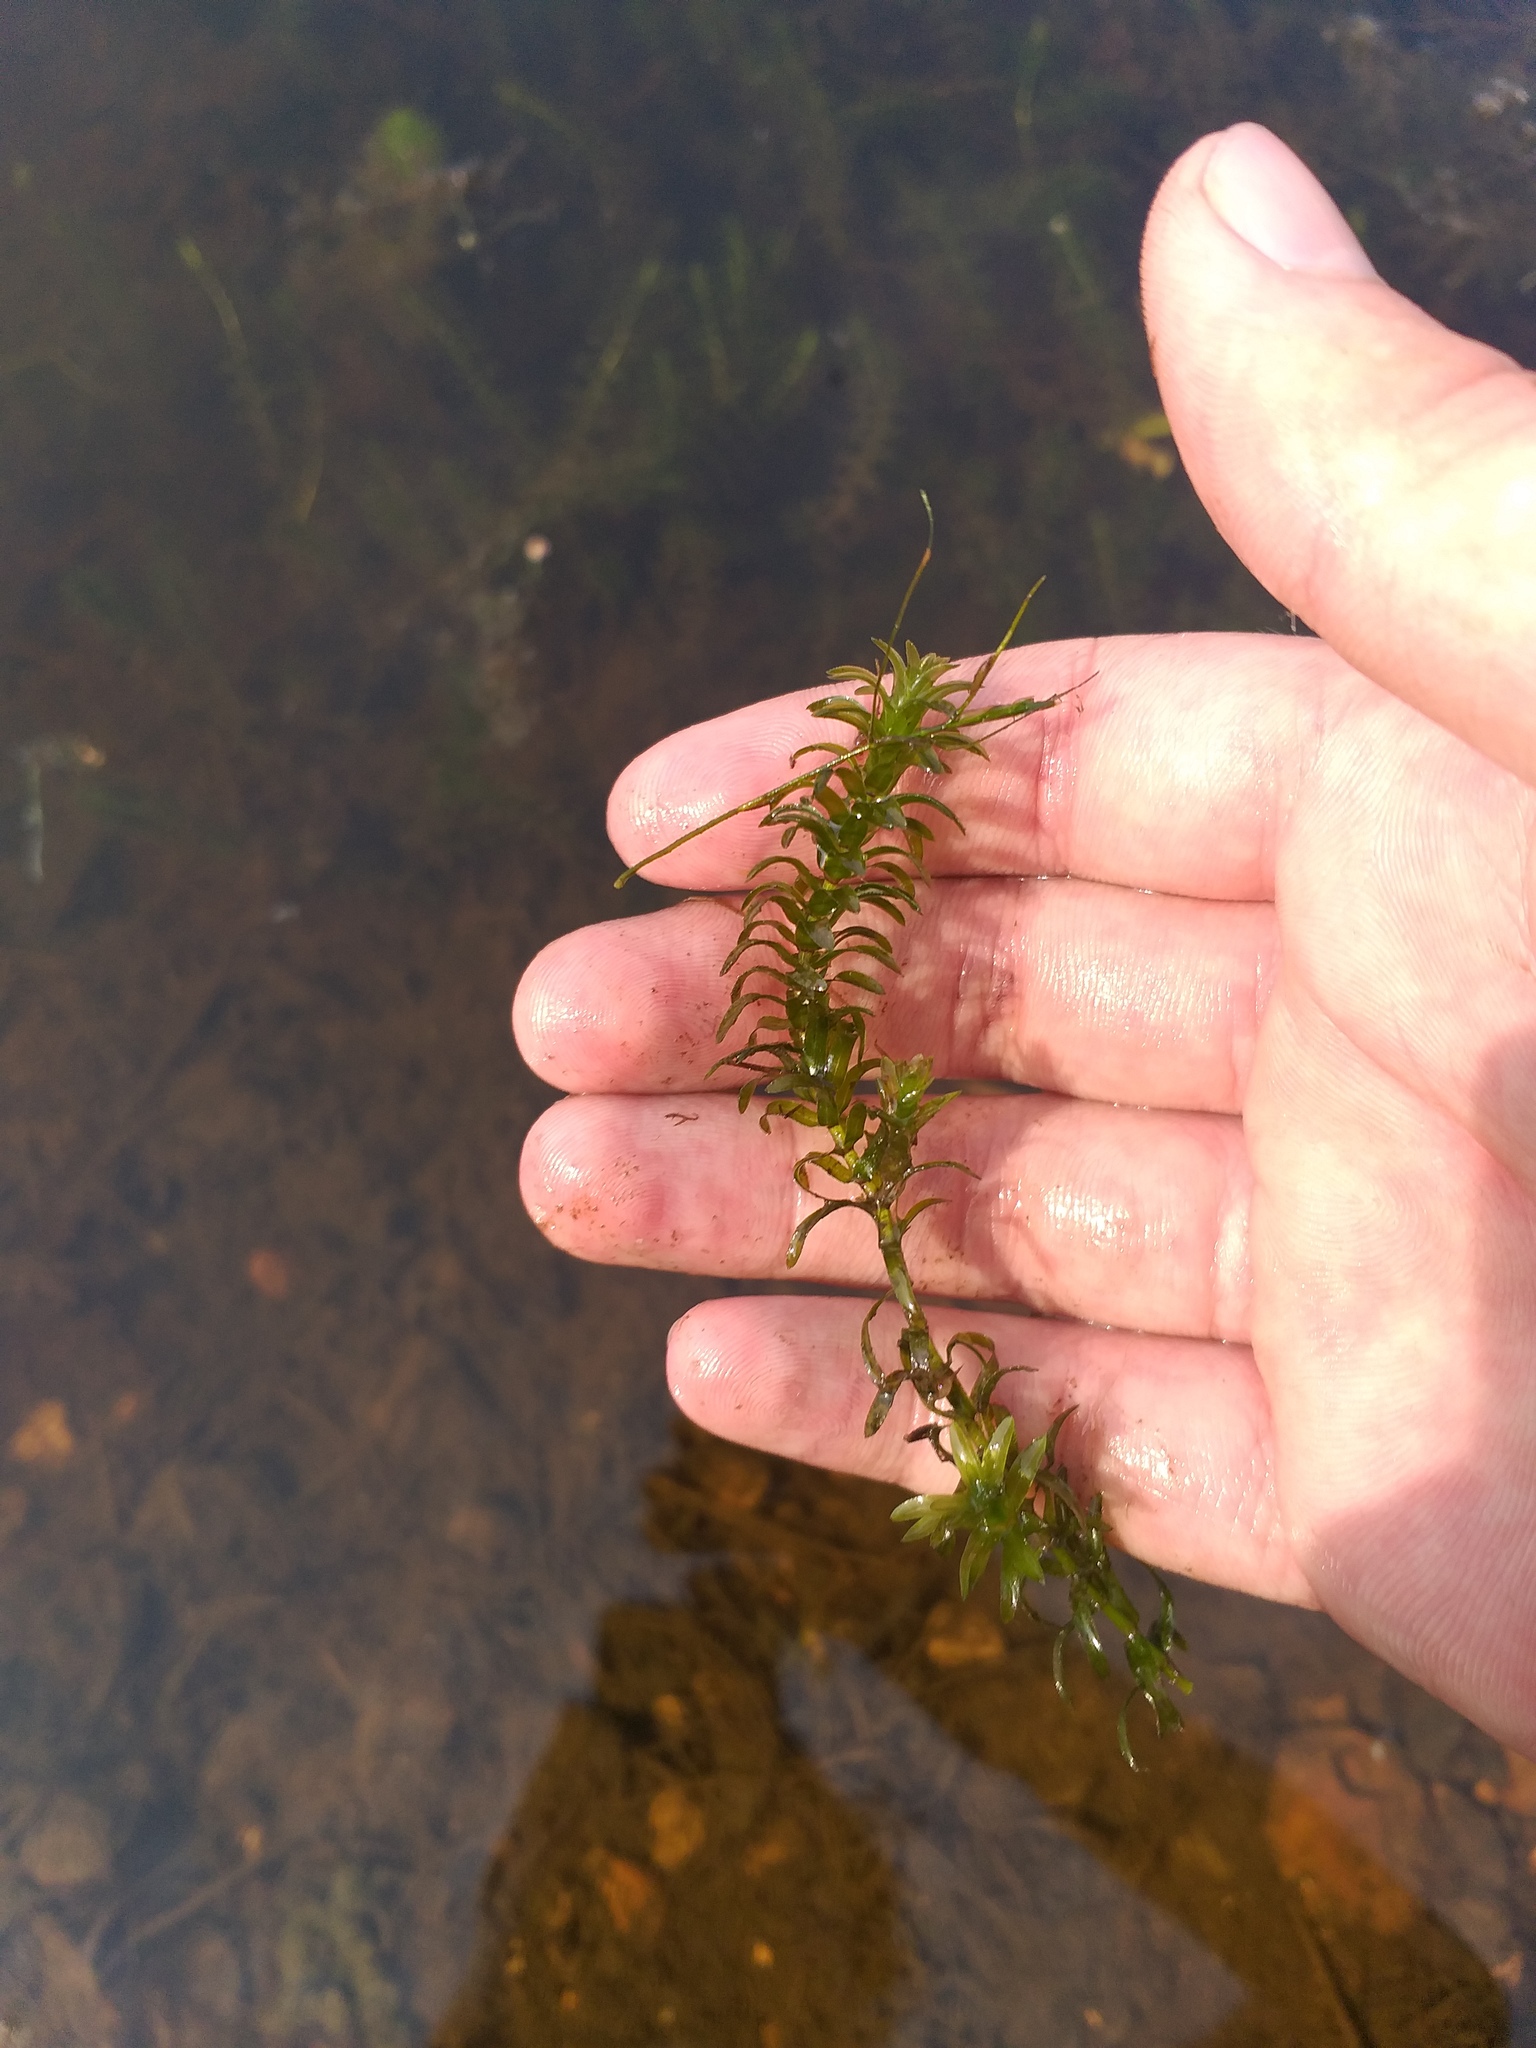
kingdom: Plantae
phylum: Tracheophyta
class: Liliopsida
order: Alismatales
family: Hydrocharitaceae
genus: Elodea
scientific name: Elodea canadensis
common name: Canadian waterweed
